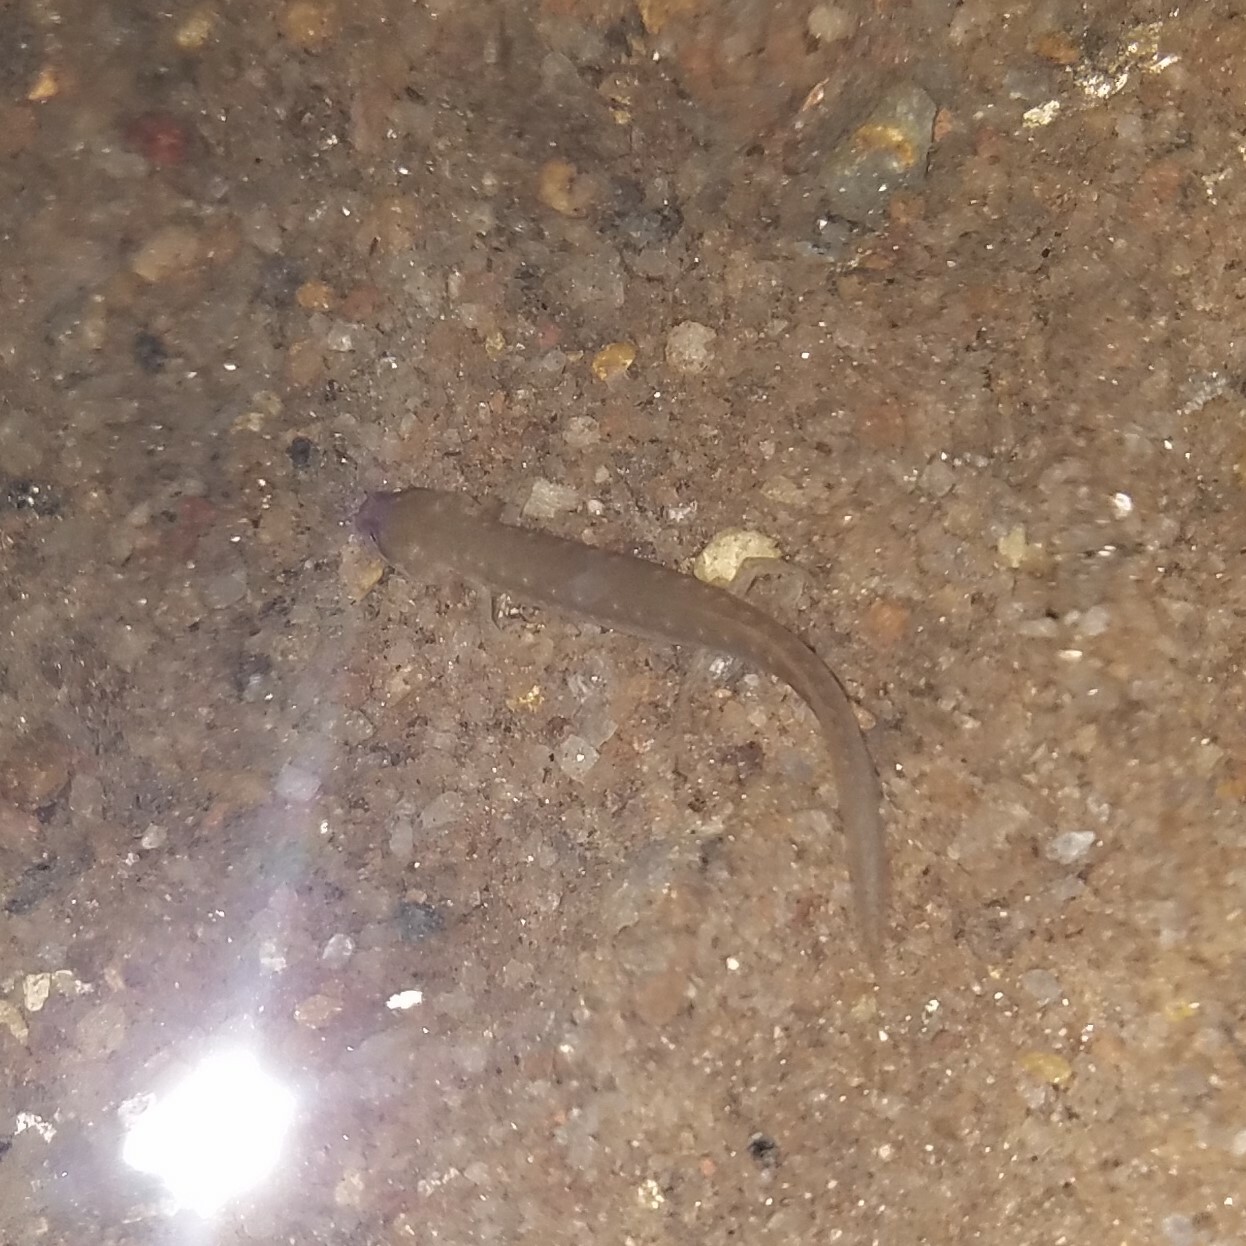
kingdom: Animalia
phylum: Chordata
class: Amphibia
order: Caudata
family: Plethodontidae
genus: Eurycea
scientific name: Eurycea cirrigera
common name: Southern two-lined salamander
